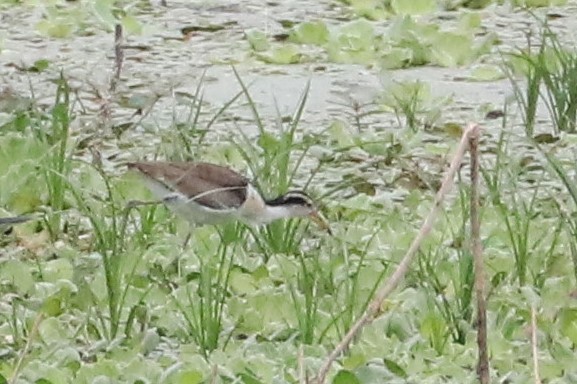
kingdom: Animalia
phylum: Chordata
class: Aves
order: Charadriiformes
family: Jacanidae
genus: Jacana
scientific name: Jacana jacana
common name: Wattled jacana
